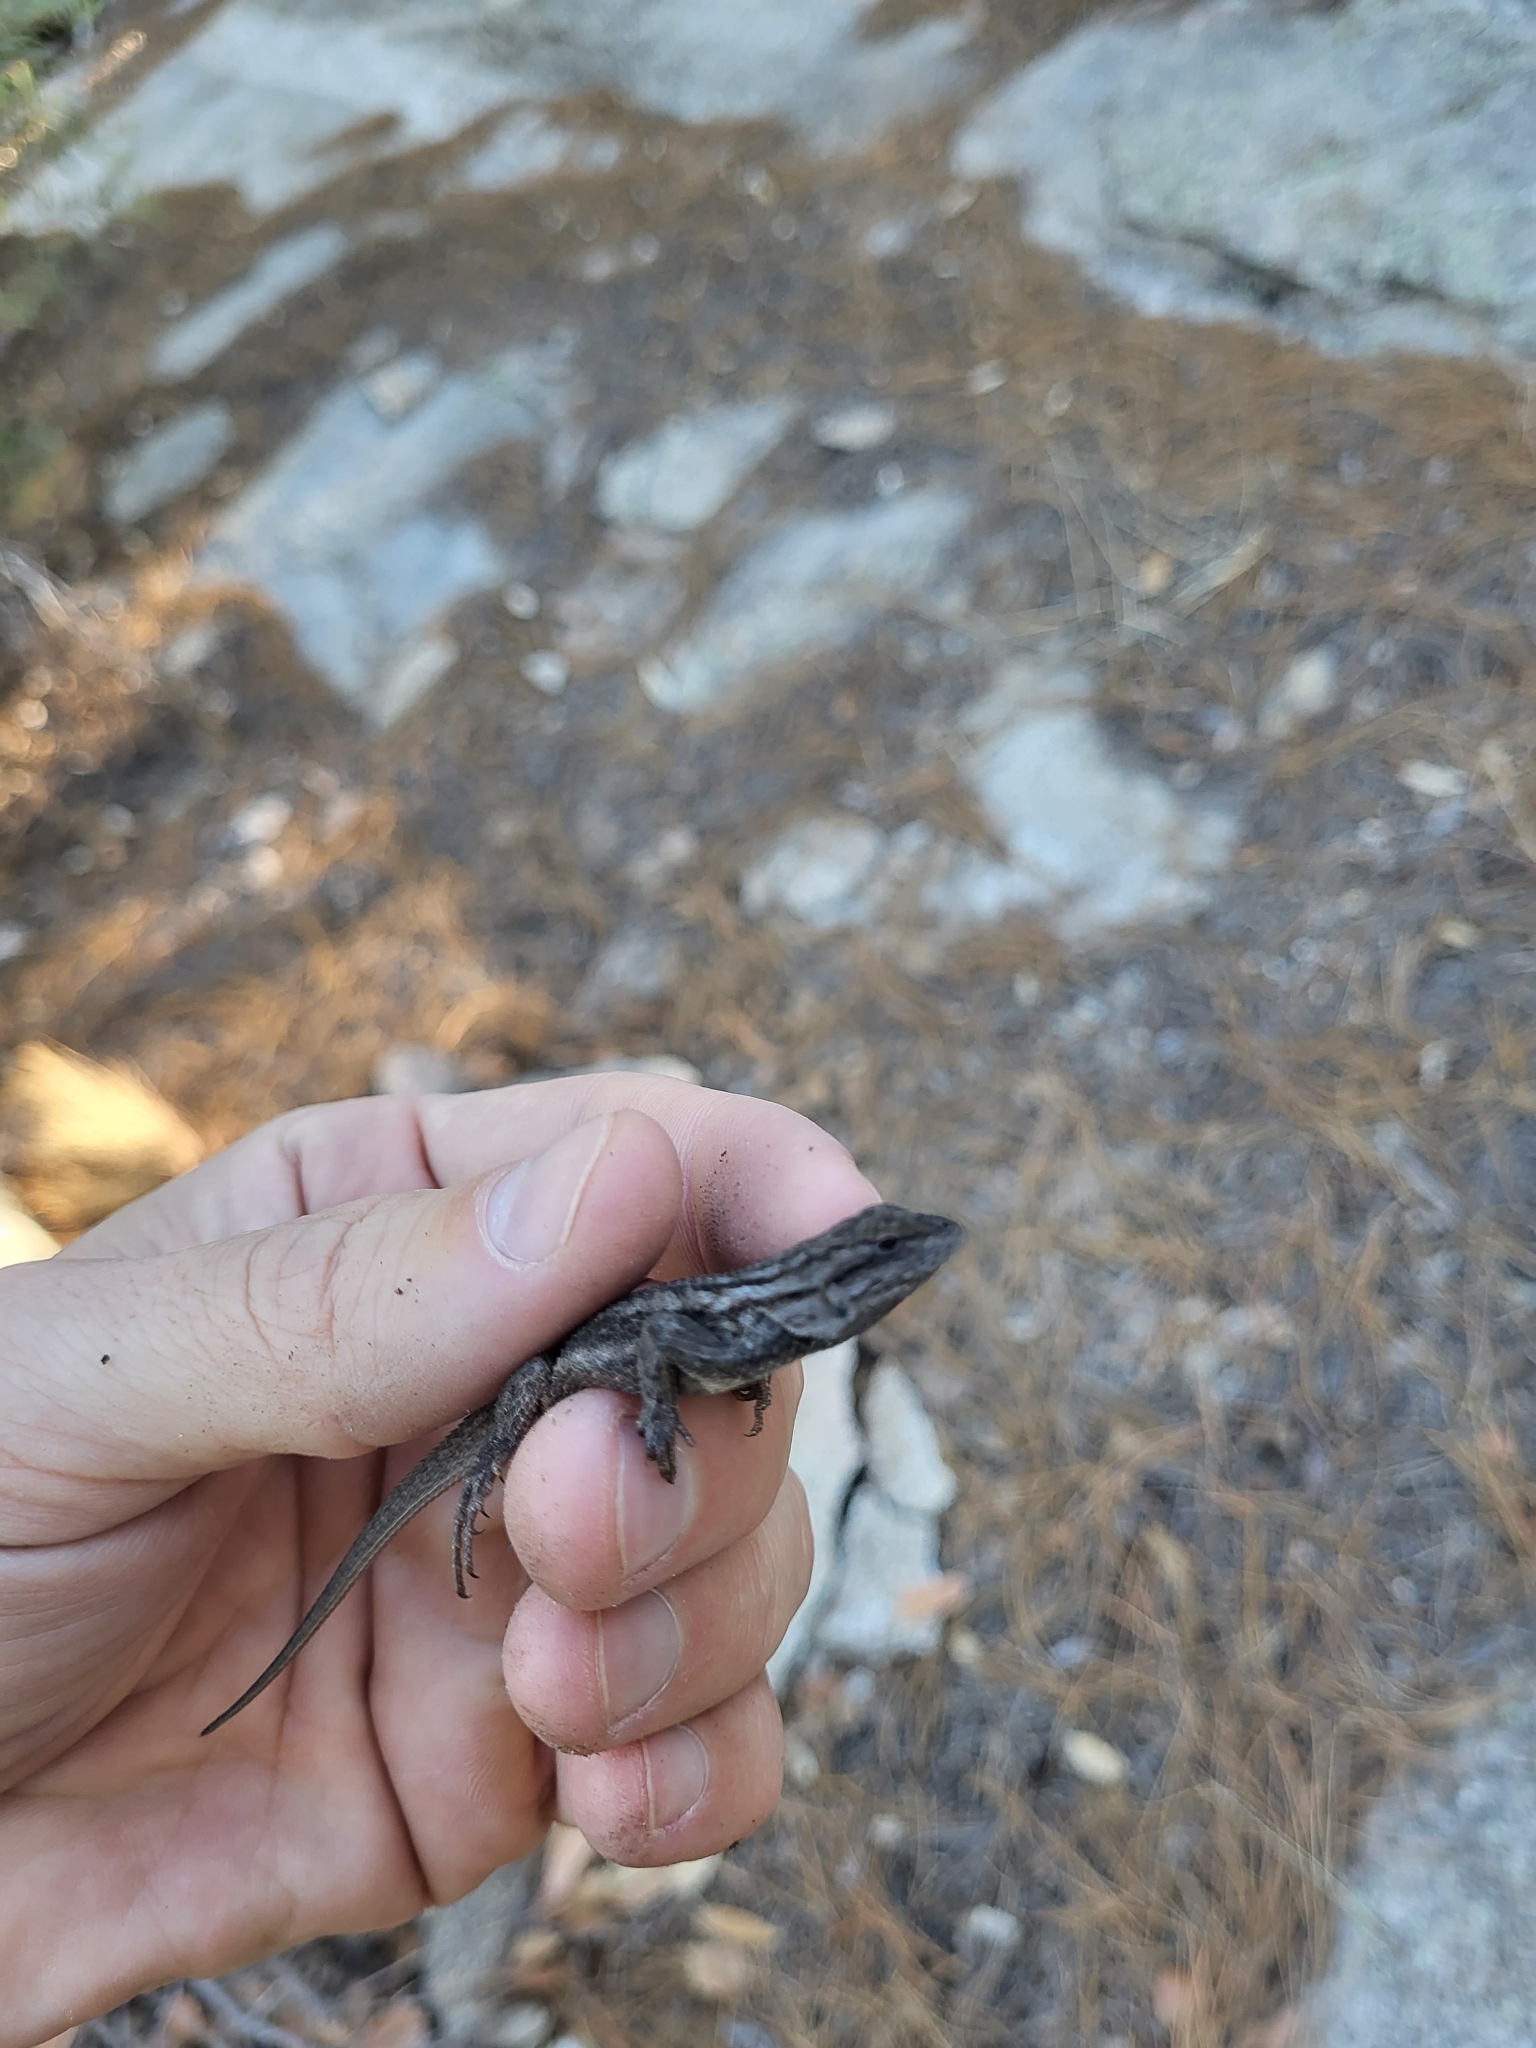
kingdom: Animalia
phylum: Chordata
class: Squamata
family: Phrynosomatidae
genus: Sceloporus
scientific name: Sceloporus cowlesi
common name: White sands prairie lizard
